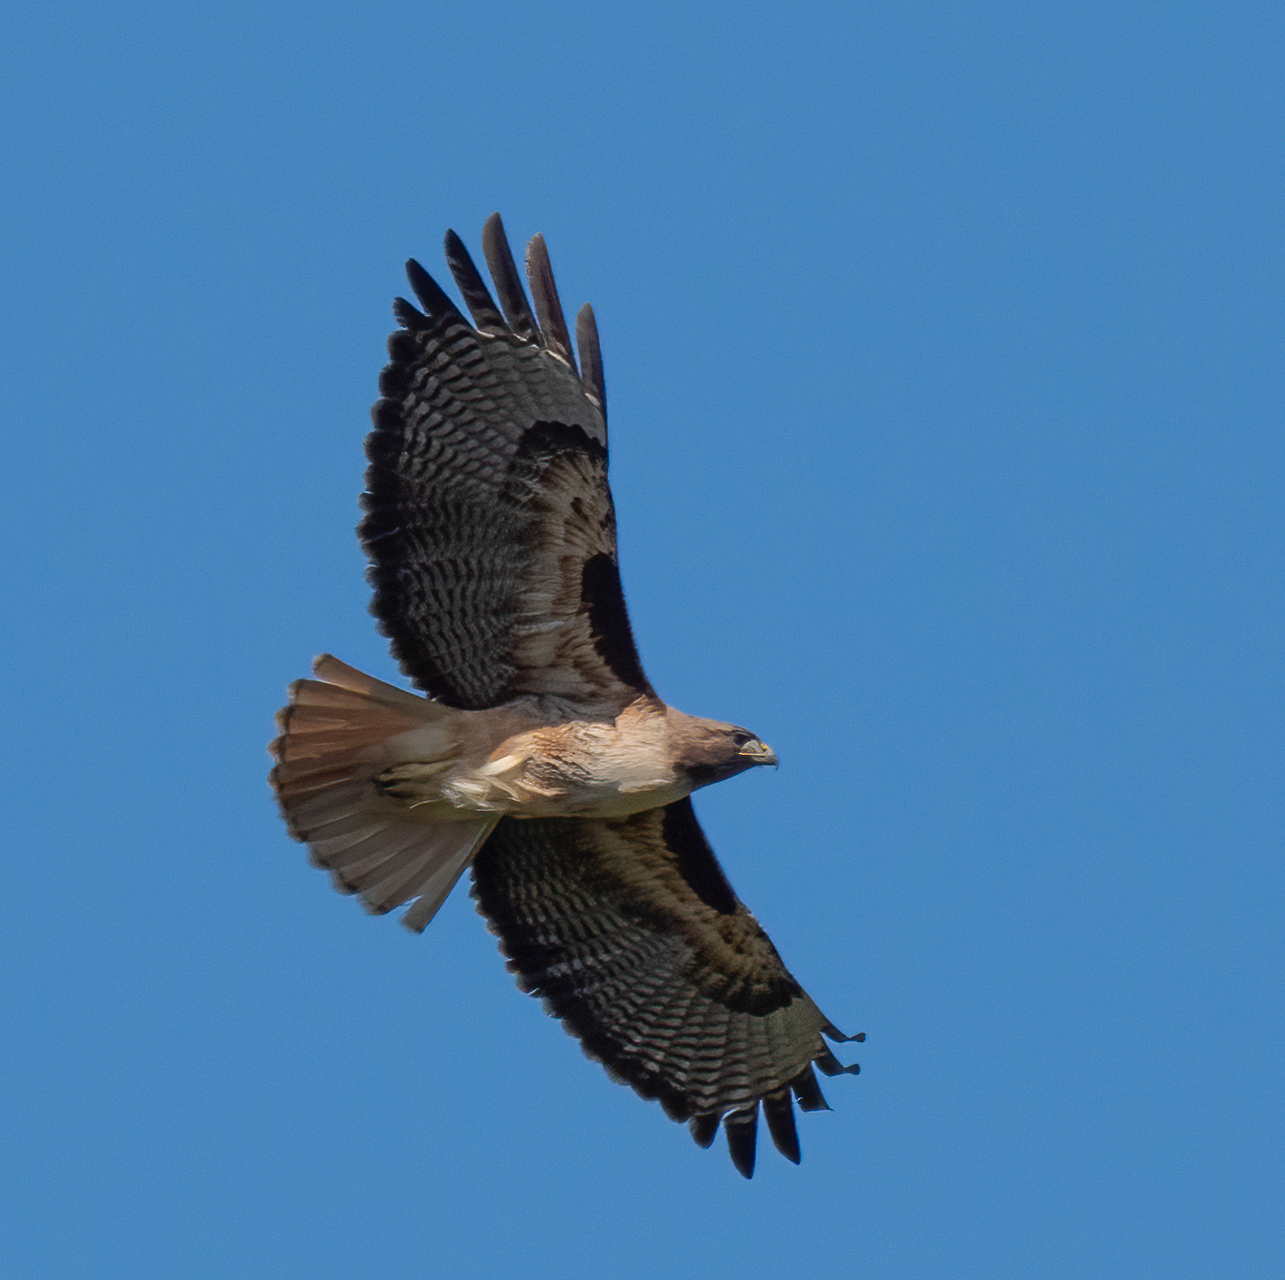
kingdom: Animalia
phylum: Chordata
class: Aves
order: Accipitriformes
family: Accipitridae
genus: Buteo
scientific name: Buteo jamaicensis
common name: Red-tailed hawk
